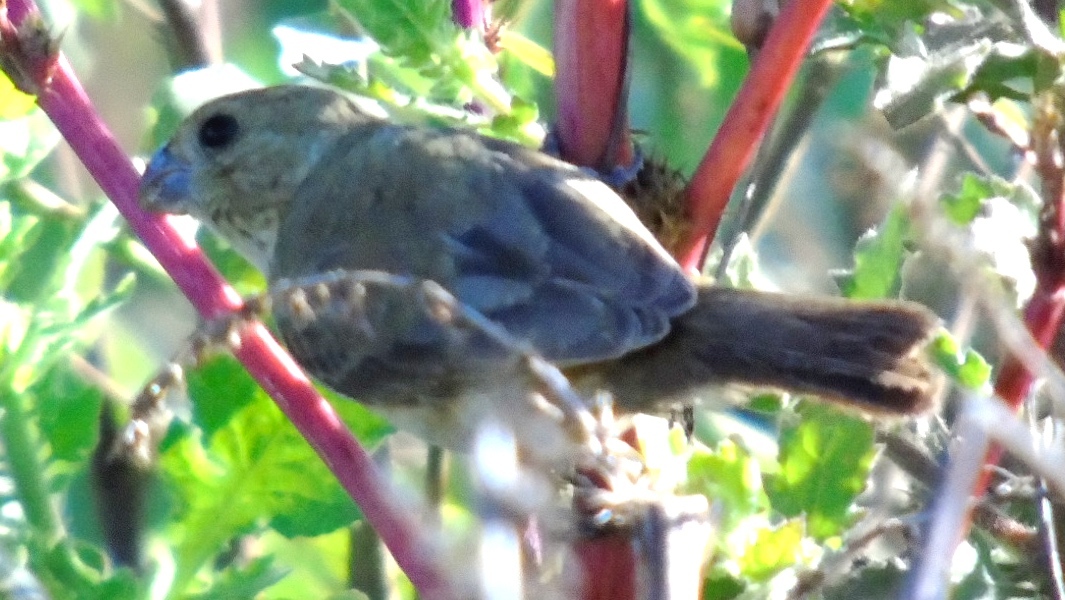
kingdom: Animalia
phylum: Chordata
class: Aves
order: Passeriformes
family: Thraupidae
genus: Sporophila
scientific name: Sporophila torqueola
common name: White-collared seedeater
